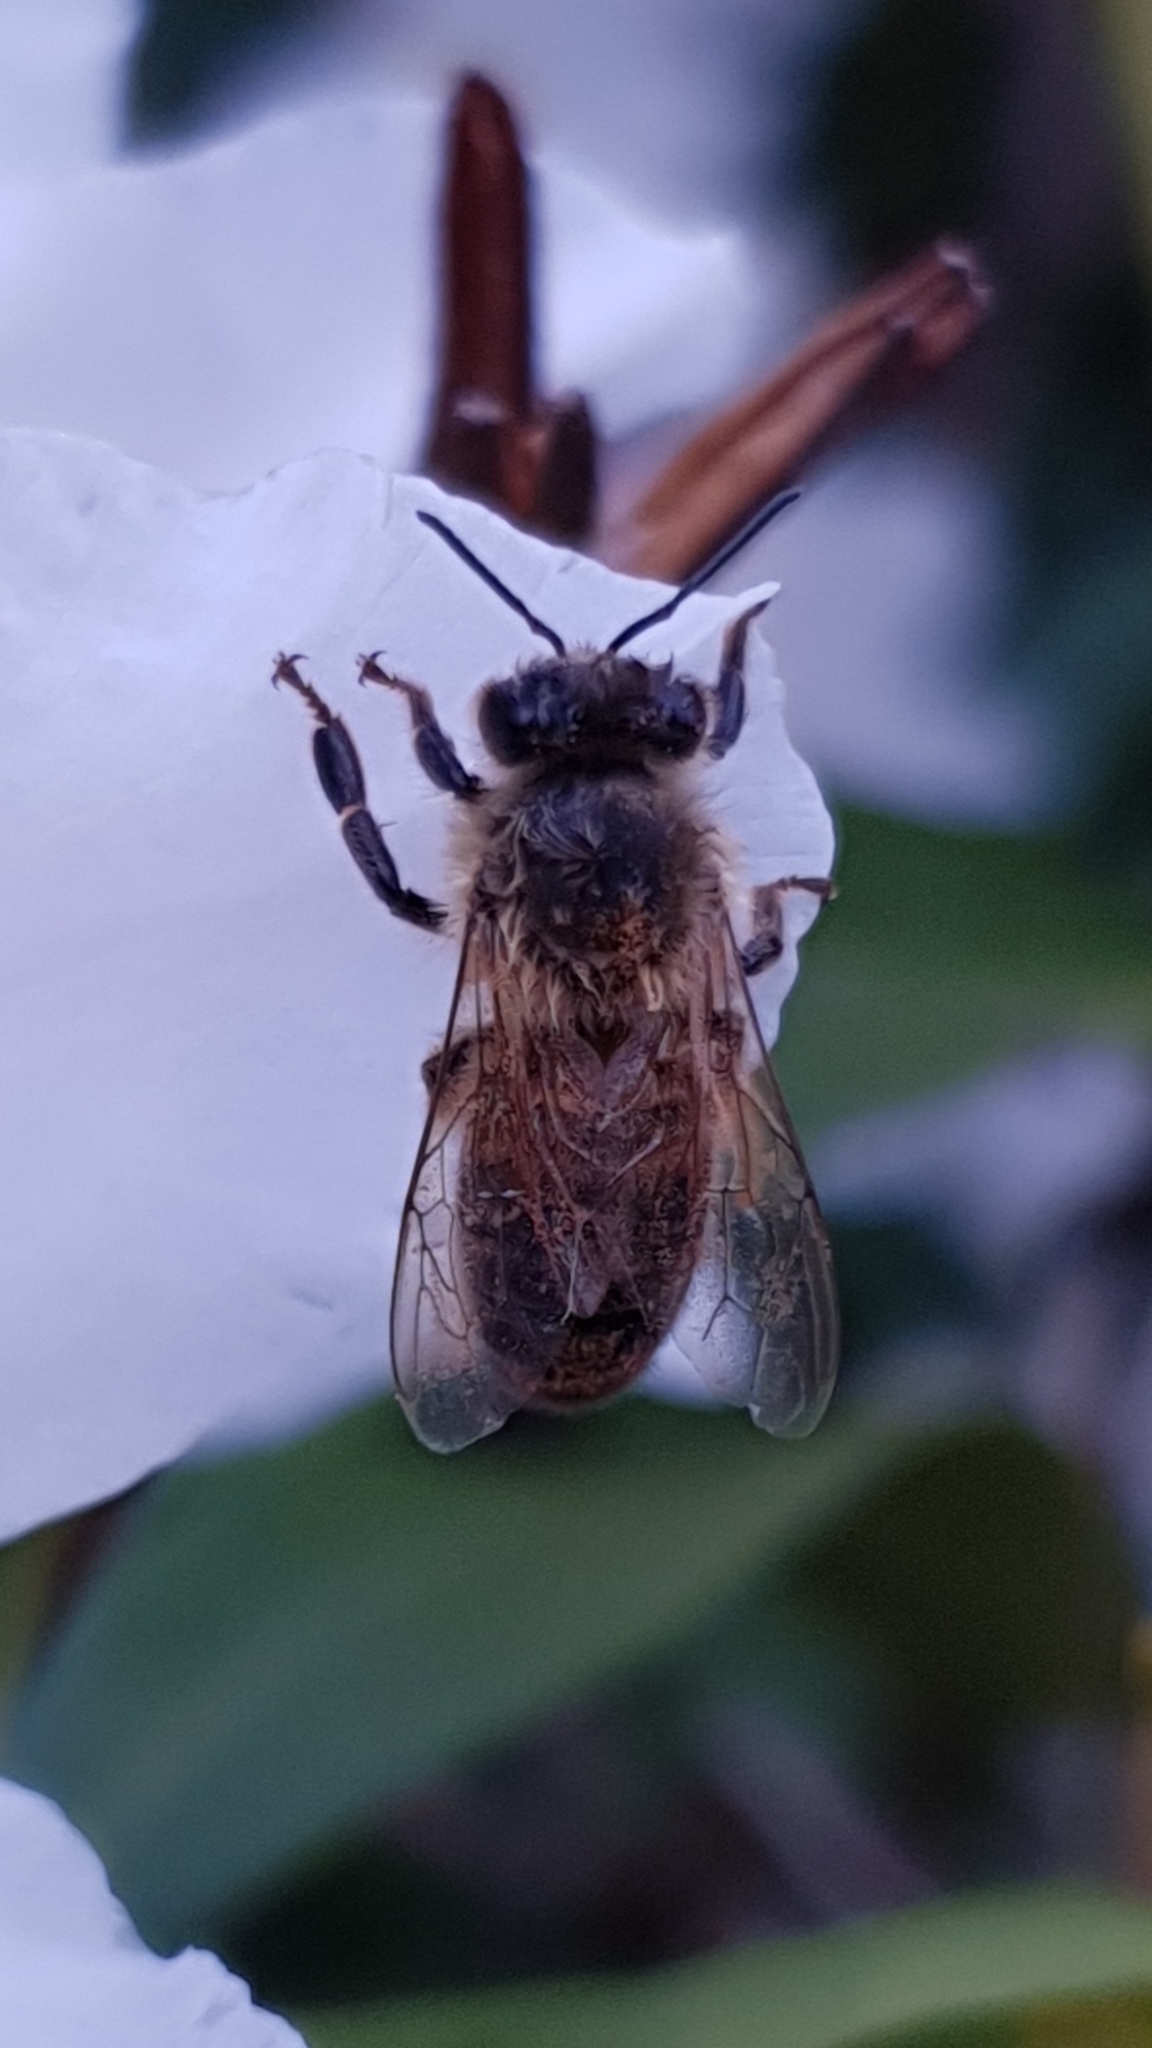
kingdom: Animalia
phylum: Arthropoda
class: Insecta
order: Hymenoptera
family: Apidae
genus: Apis
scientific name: Apis mellifera
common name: Honey bee
